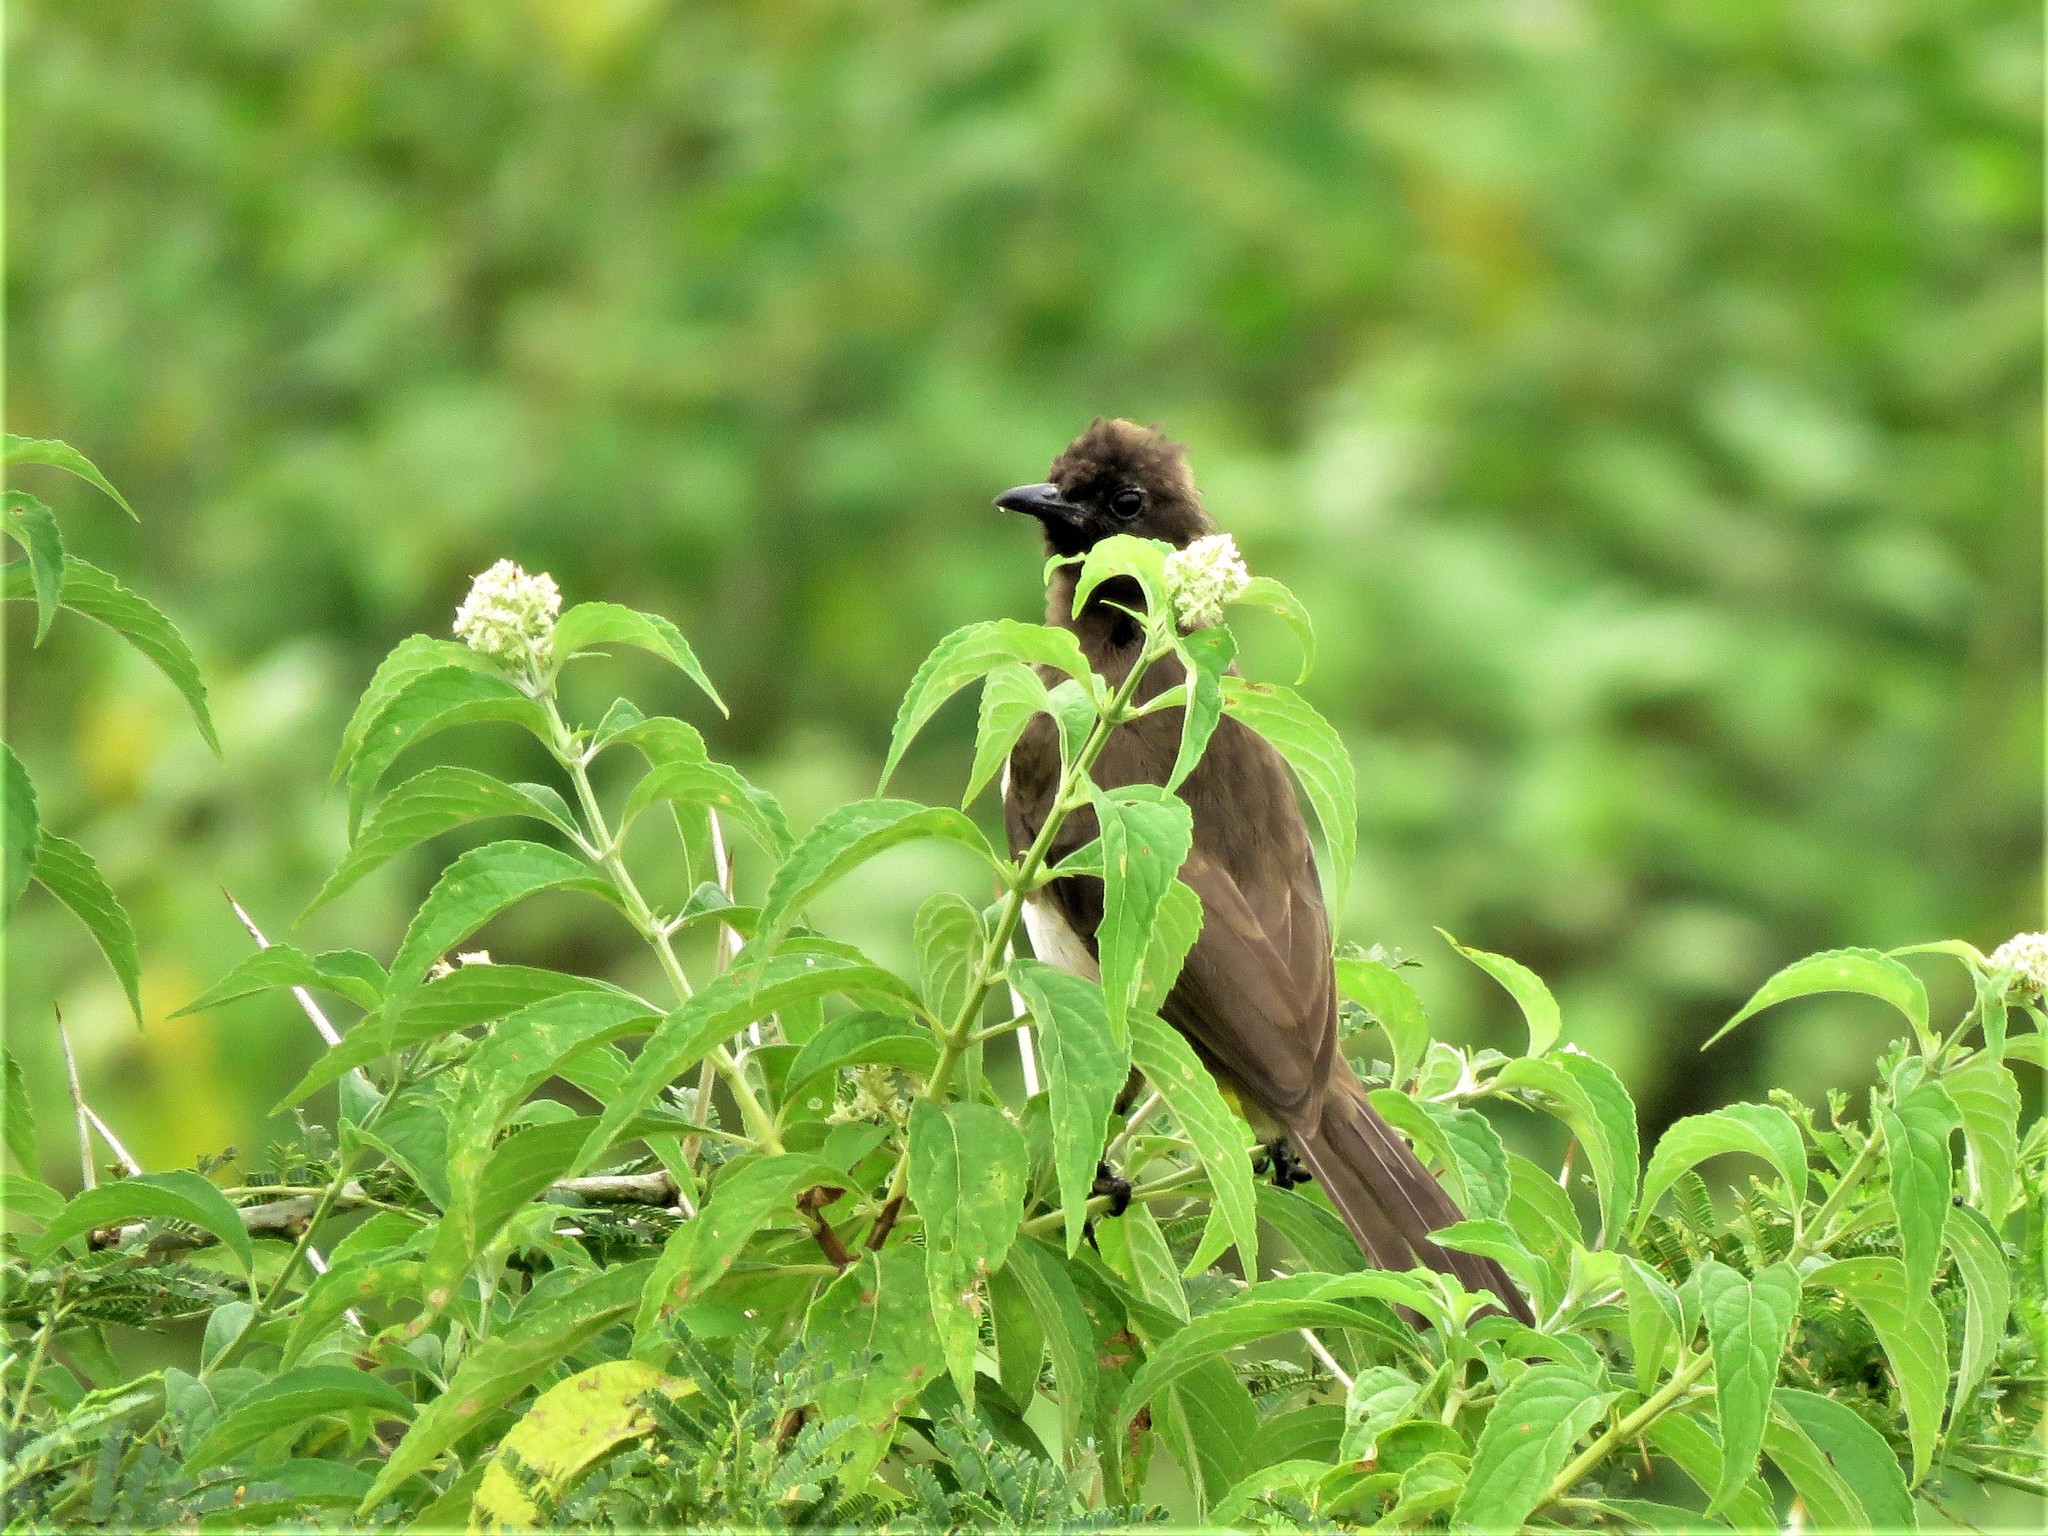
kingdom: Animalia
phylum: Chordata
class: Aves
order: Passeriformes
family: Pycnonotidae
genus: Pycnonotus
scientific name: Pycnonotus barbatus
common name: Common bulbul
